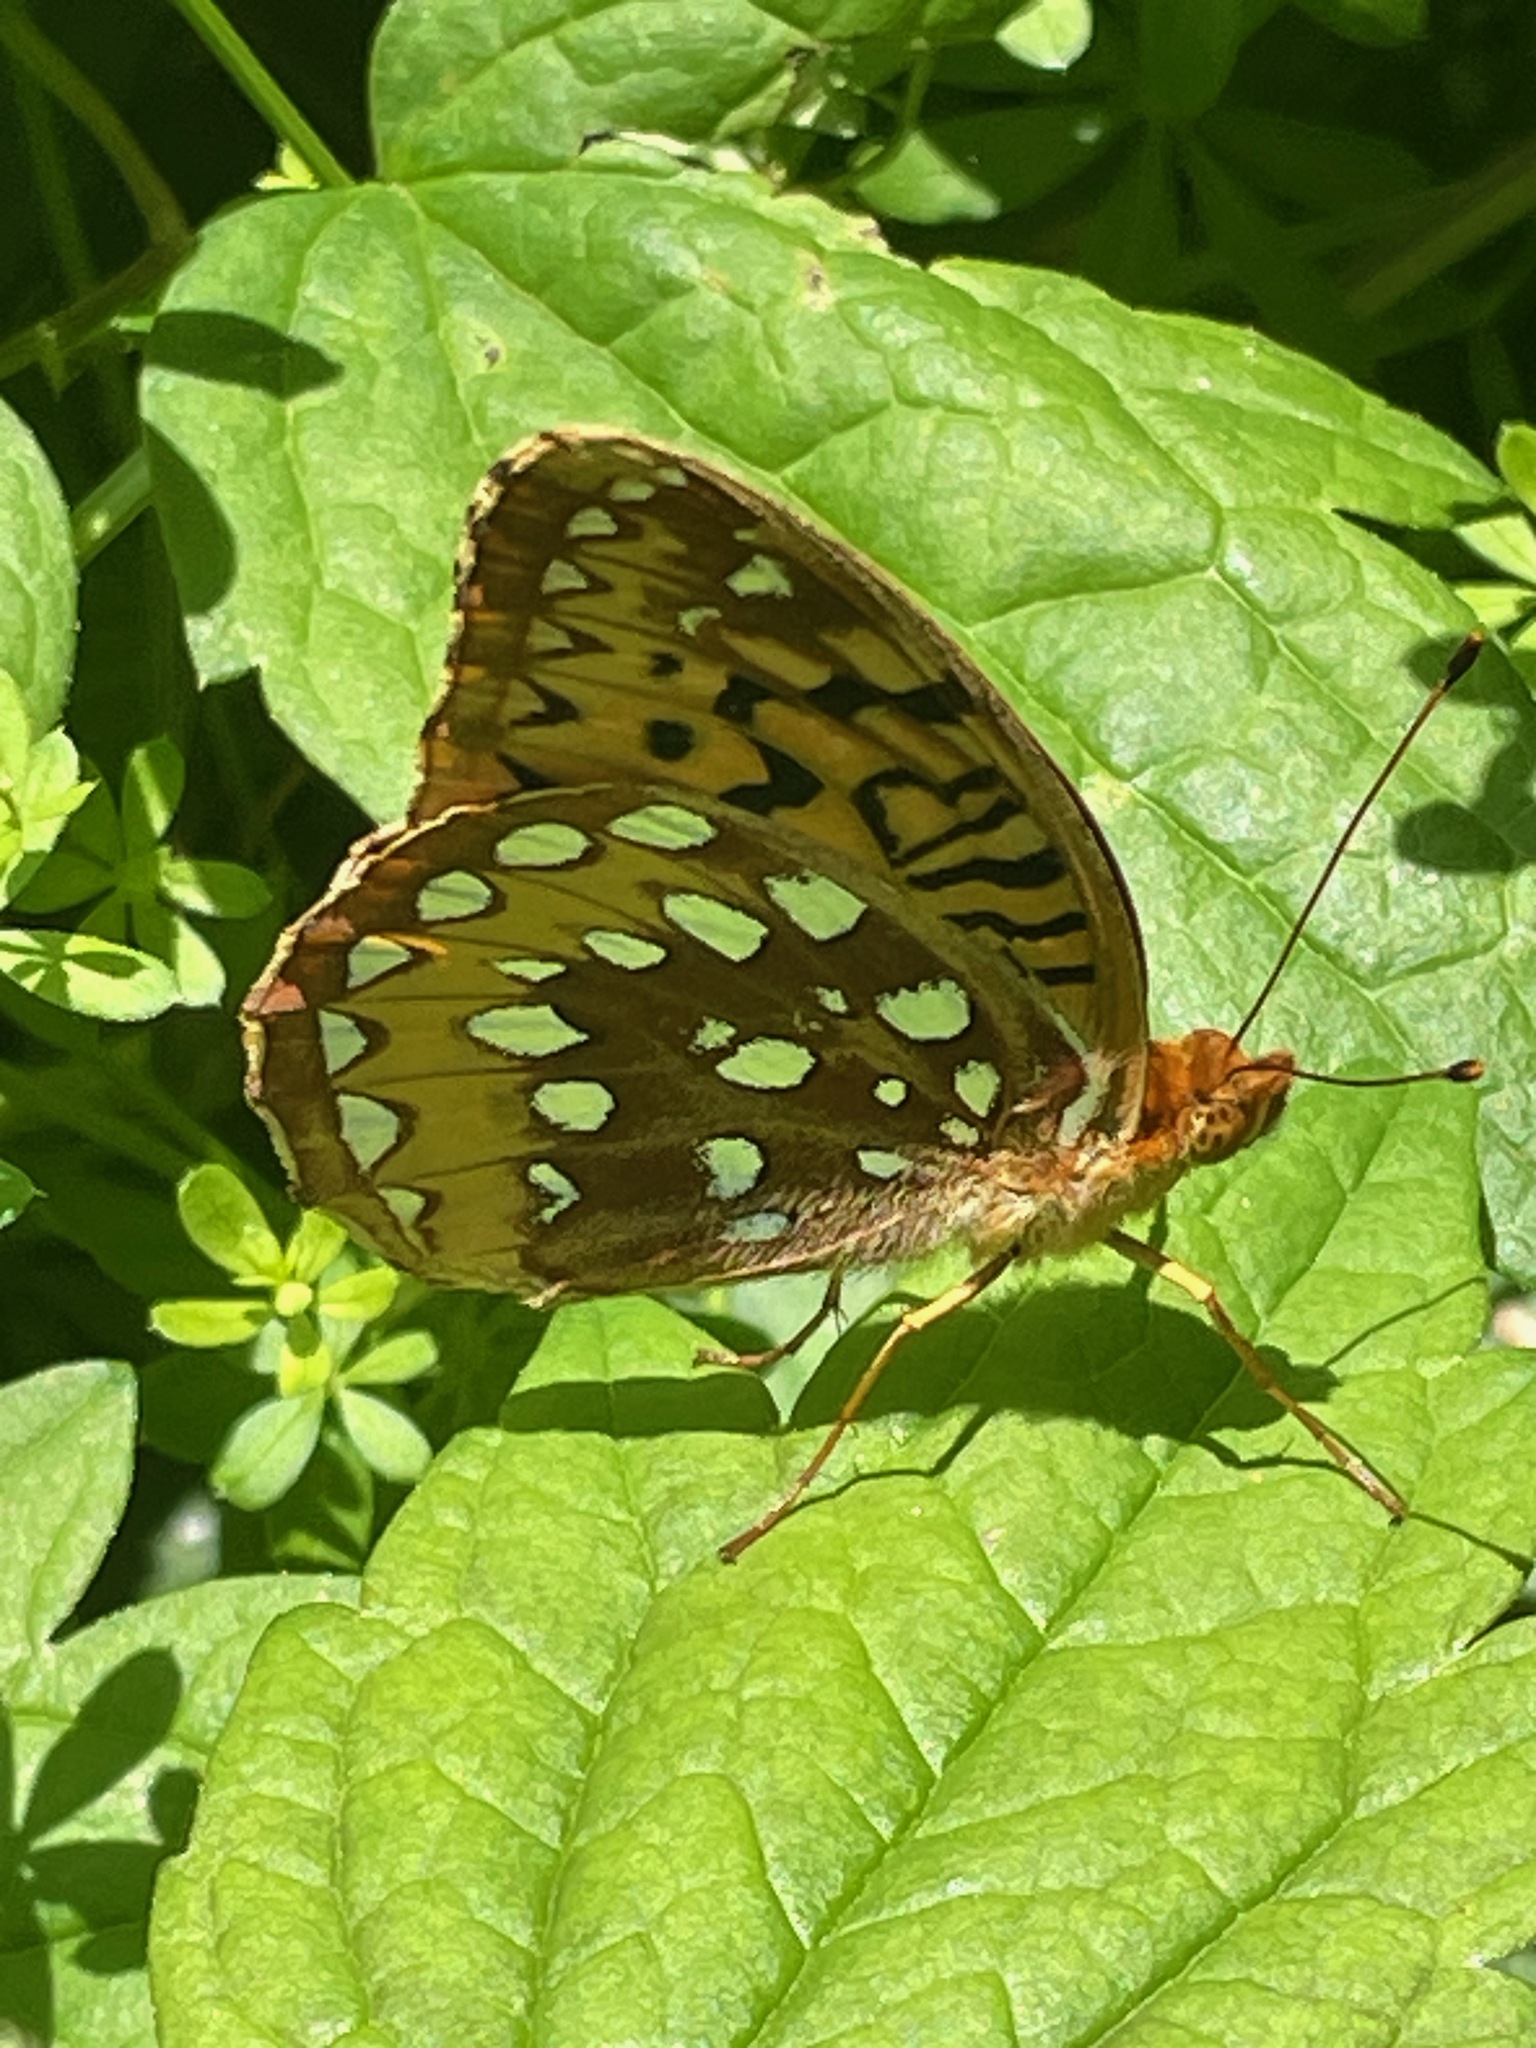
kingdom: Animalia
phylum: Arthropoda
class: Insecta
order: Lepidoptera
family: Nymphalidae
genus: Speyeria
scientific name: Speyeria cybele
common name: Great spangled fritillary
